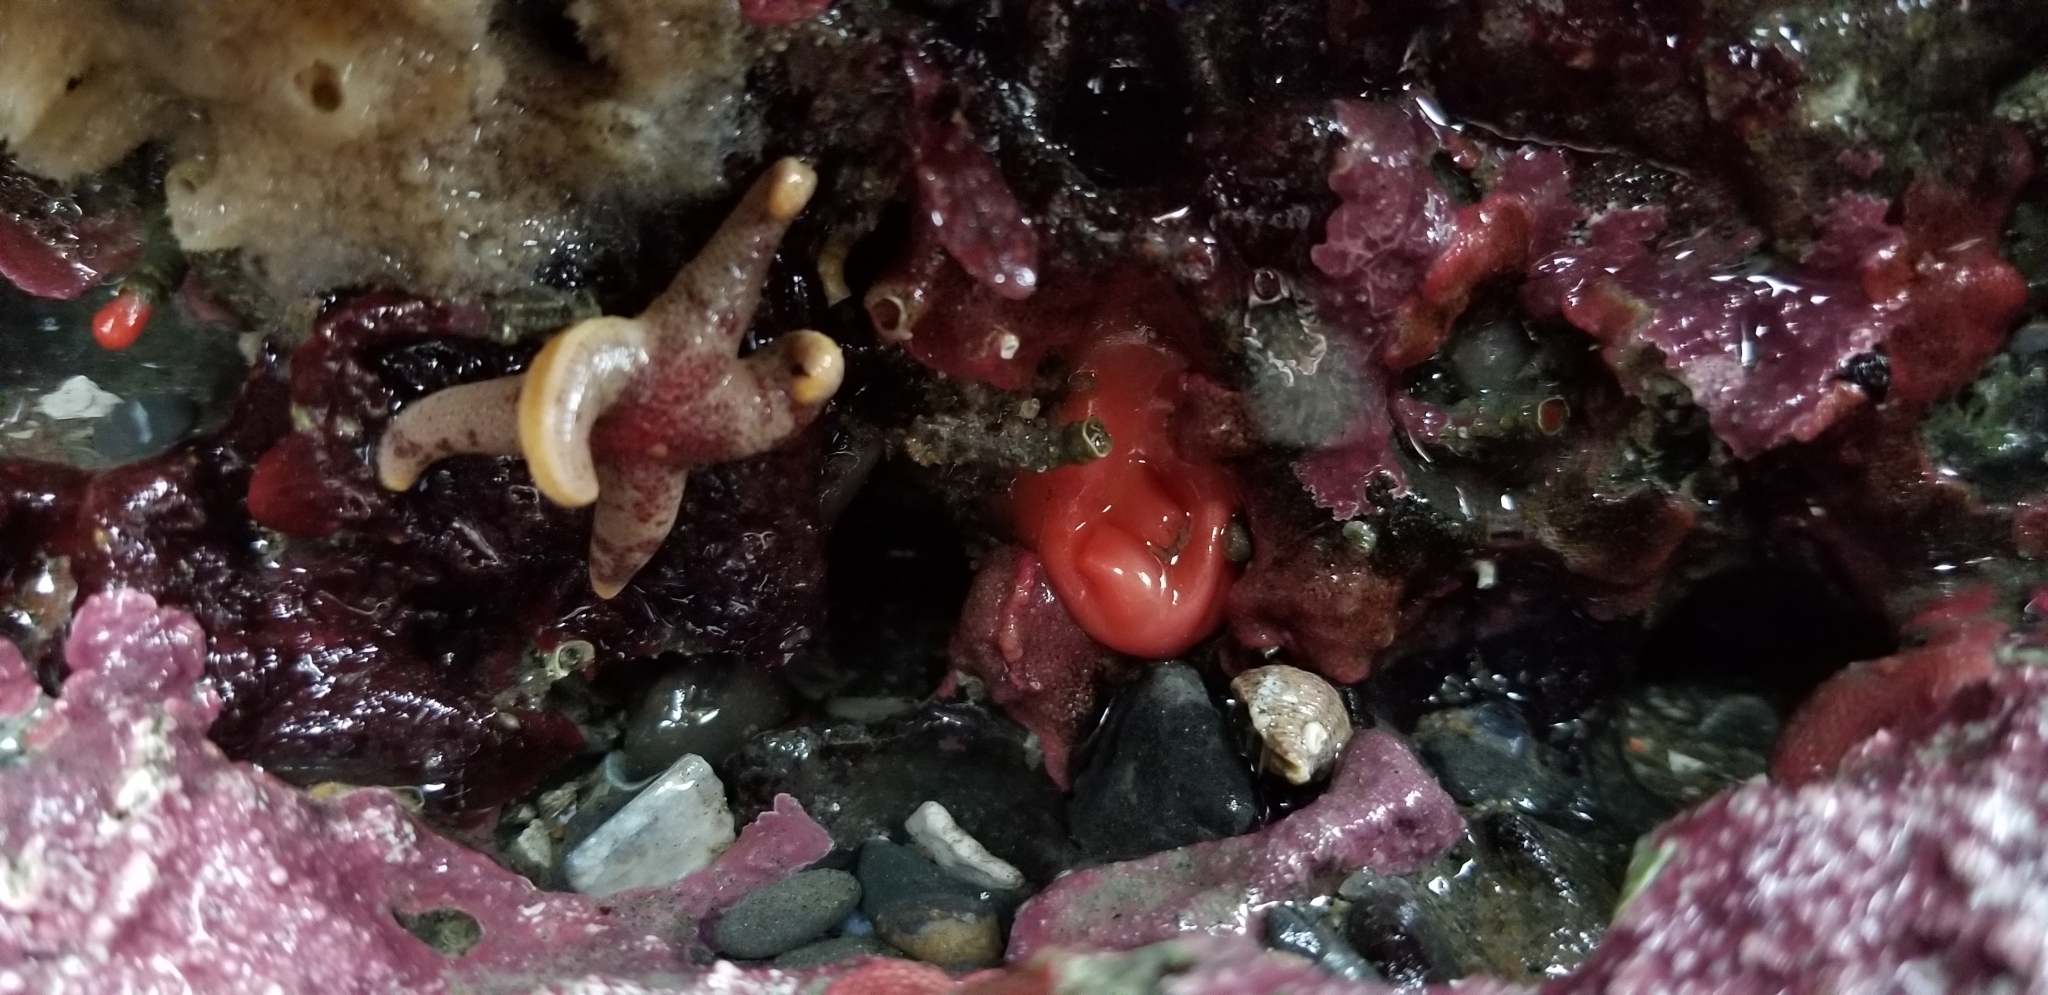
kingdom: Animalia
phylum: Echinodermata
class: Asteroidea
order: Spinulosida
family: Echinasteridae
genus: Henricia
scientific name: Henricia pumila
